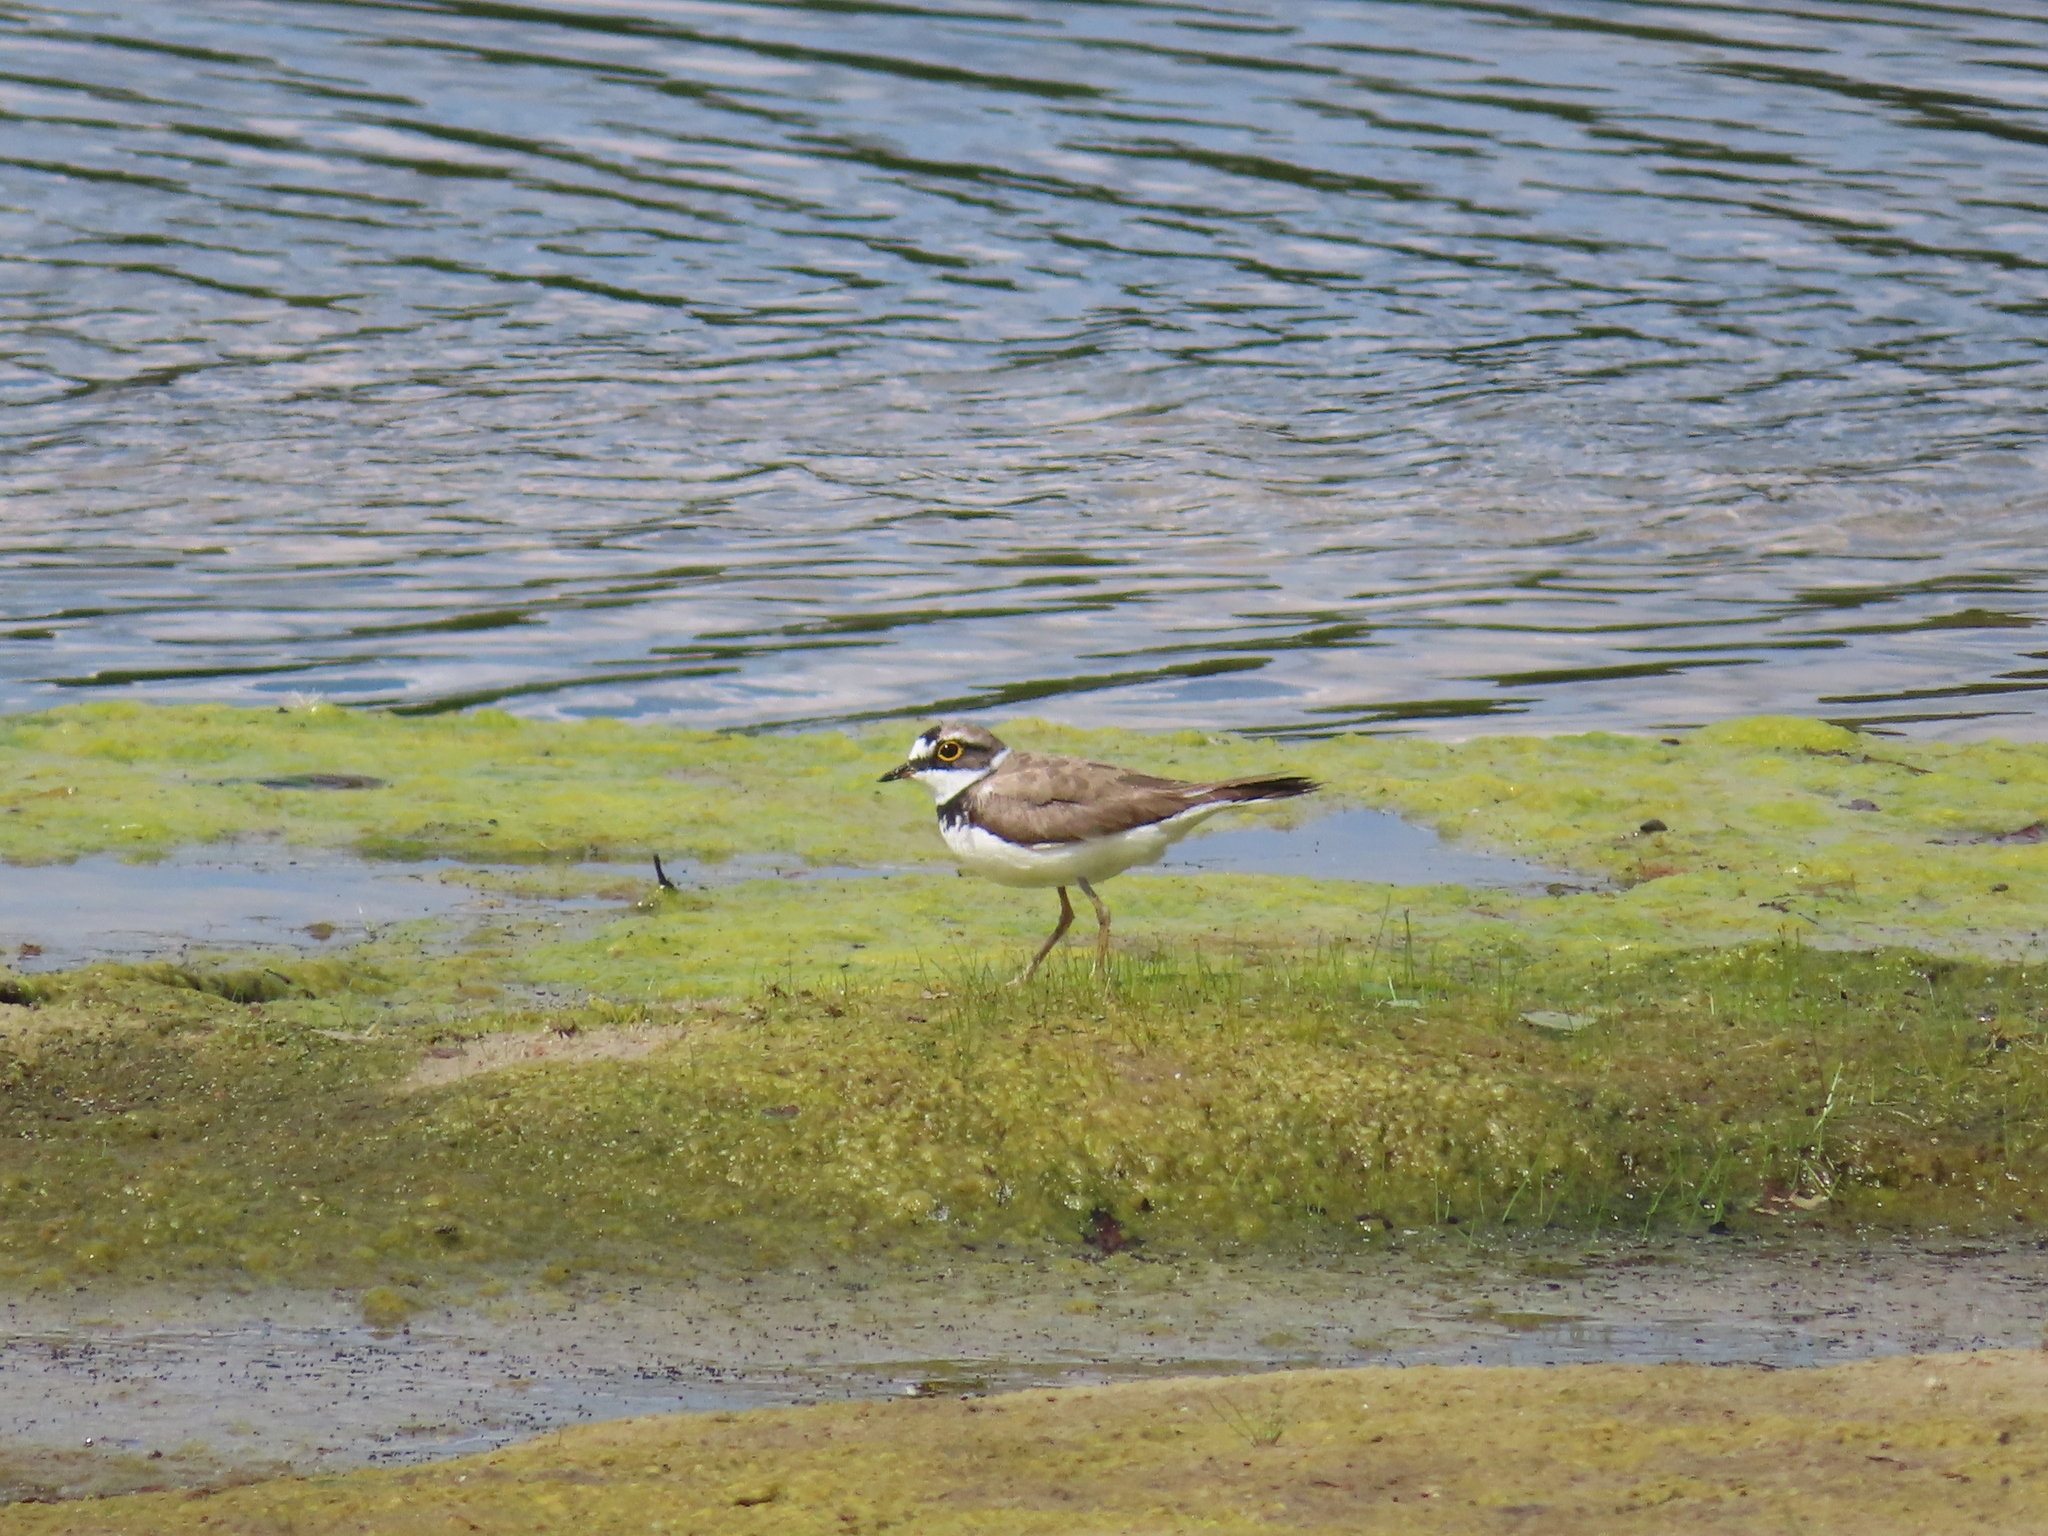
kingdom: Animalia
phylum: Chordata
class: Aves
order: Charadriiformes
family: Charadriidae
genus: Charadrius
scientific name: Charadrius dubius
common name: Little ringed plover
